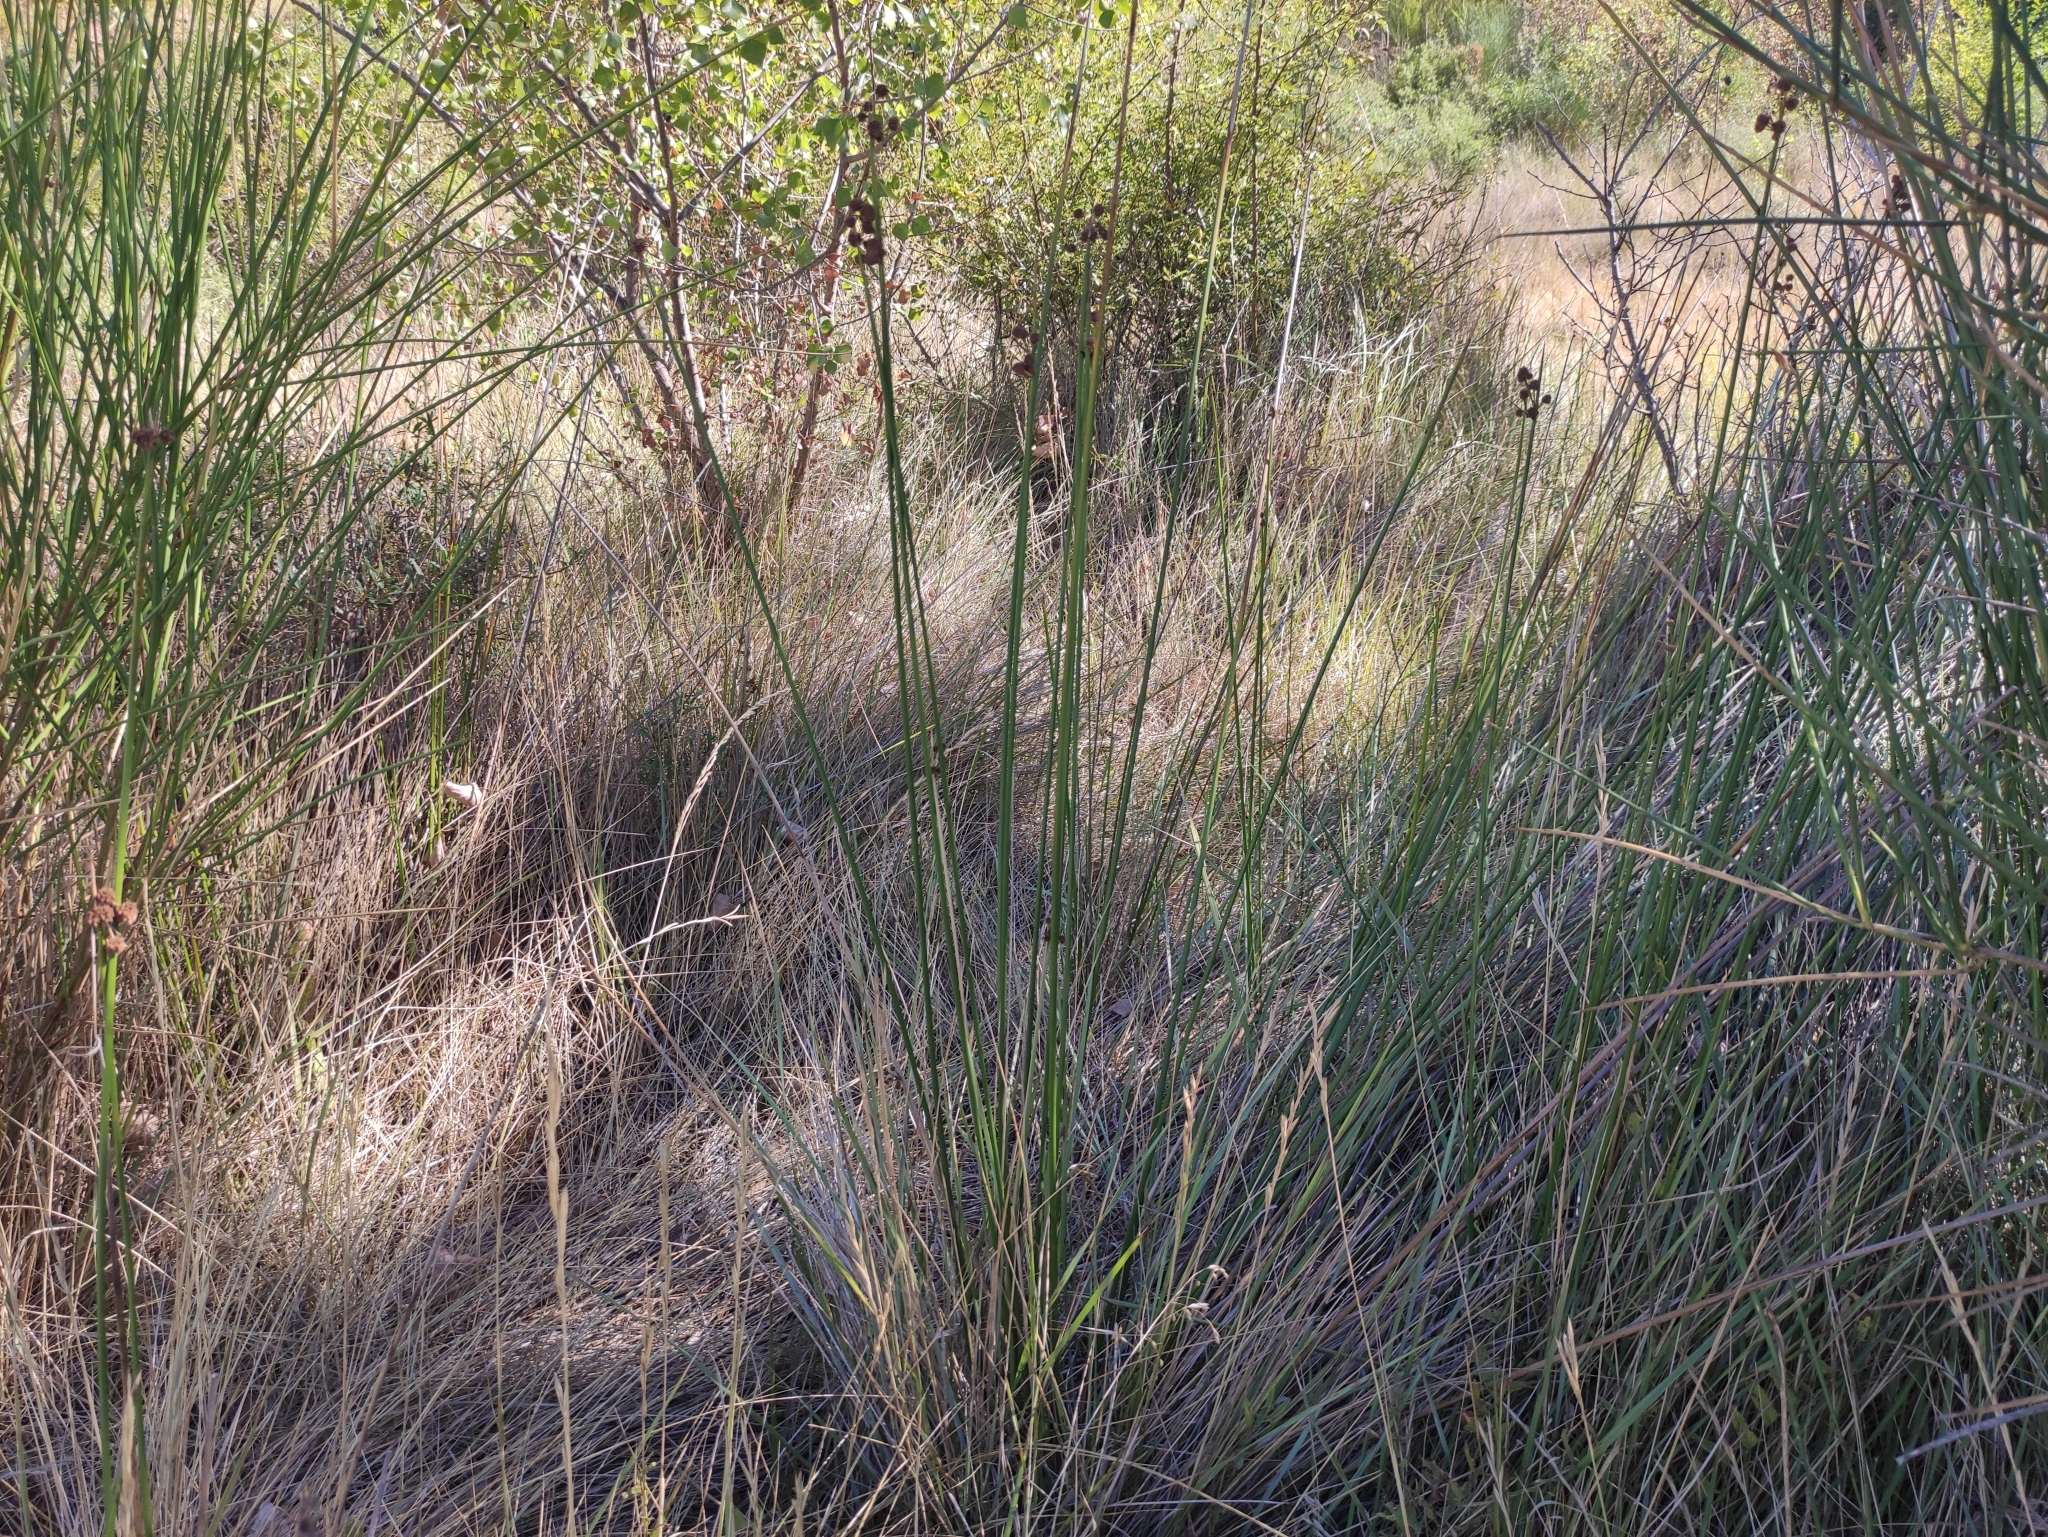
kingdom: Plantae
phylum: Tracheophyta
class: Liliopsida
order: Poales
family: Cyperaceae
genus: Scirpoides
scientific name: Scirpoides holoschoenus
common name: Round-headed club-rush
